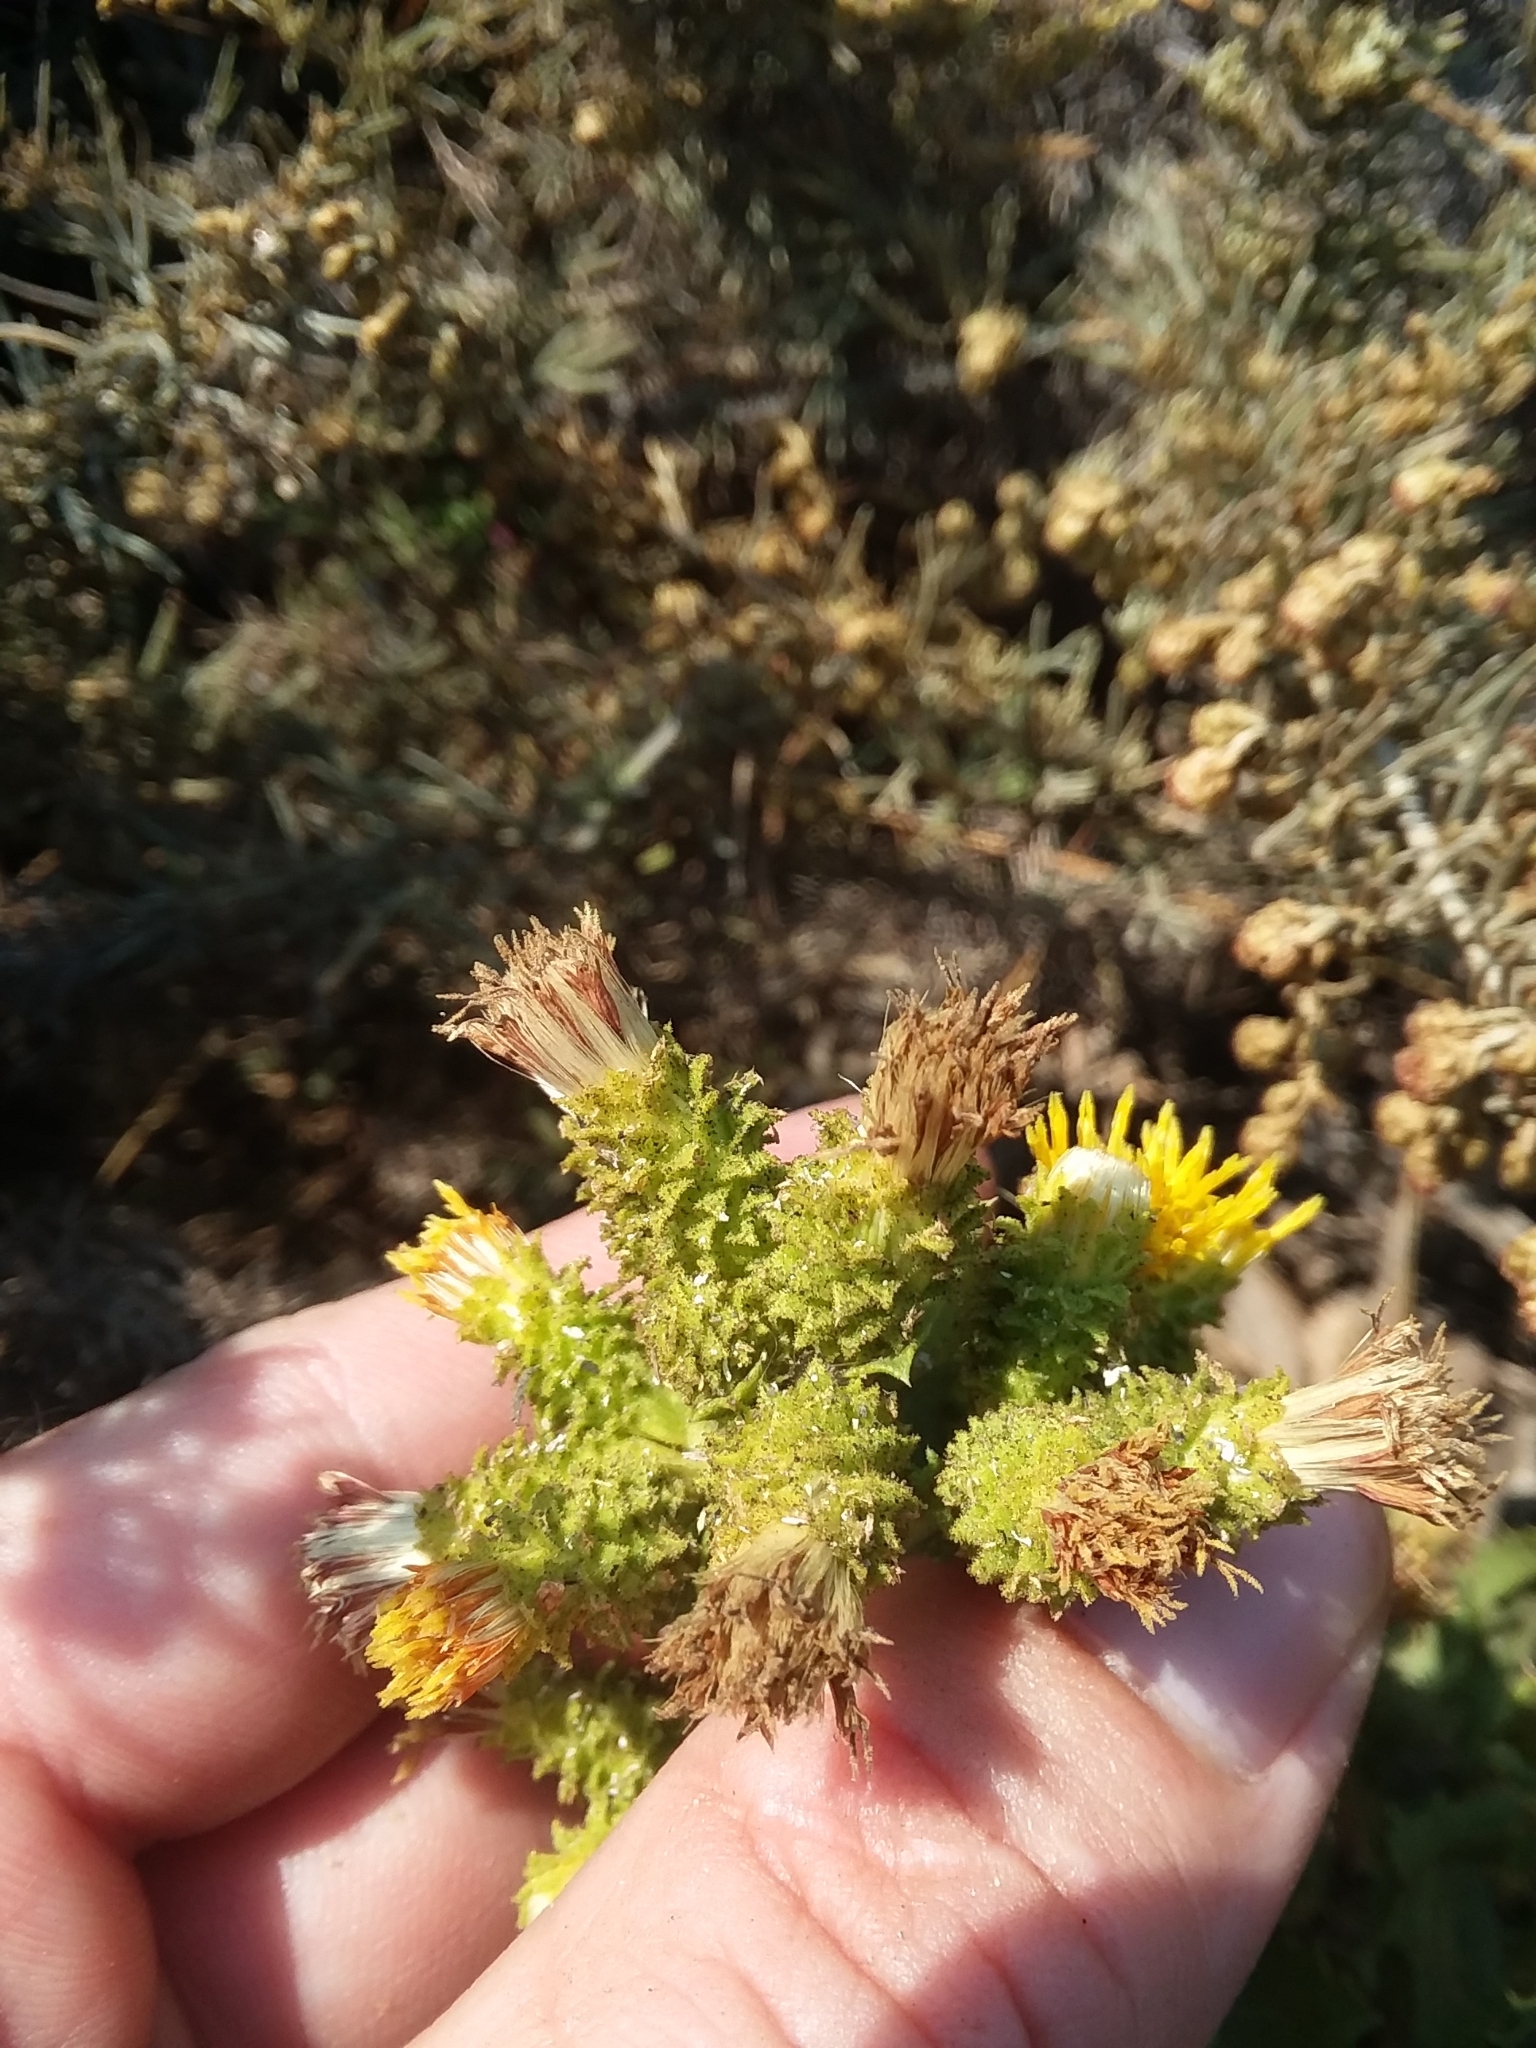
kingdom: Plantae
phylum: Tracheophyta
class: Magnoliopsida
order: Asterales
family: Asteraceae
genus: Hazardia
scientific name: Hazardia squarrosa
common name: Saw-tooth goldenbush
